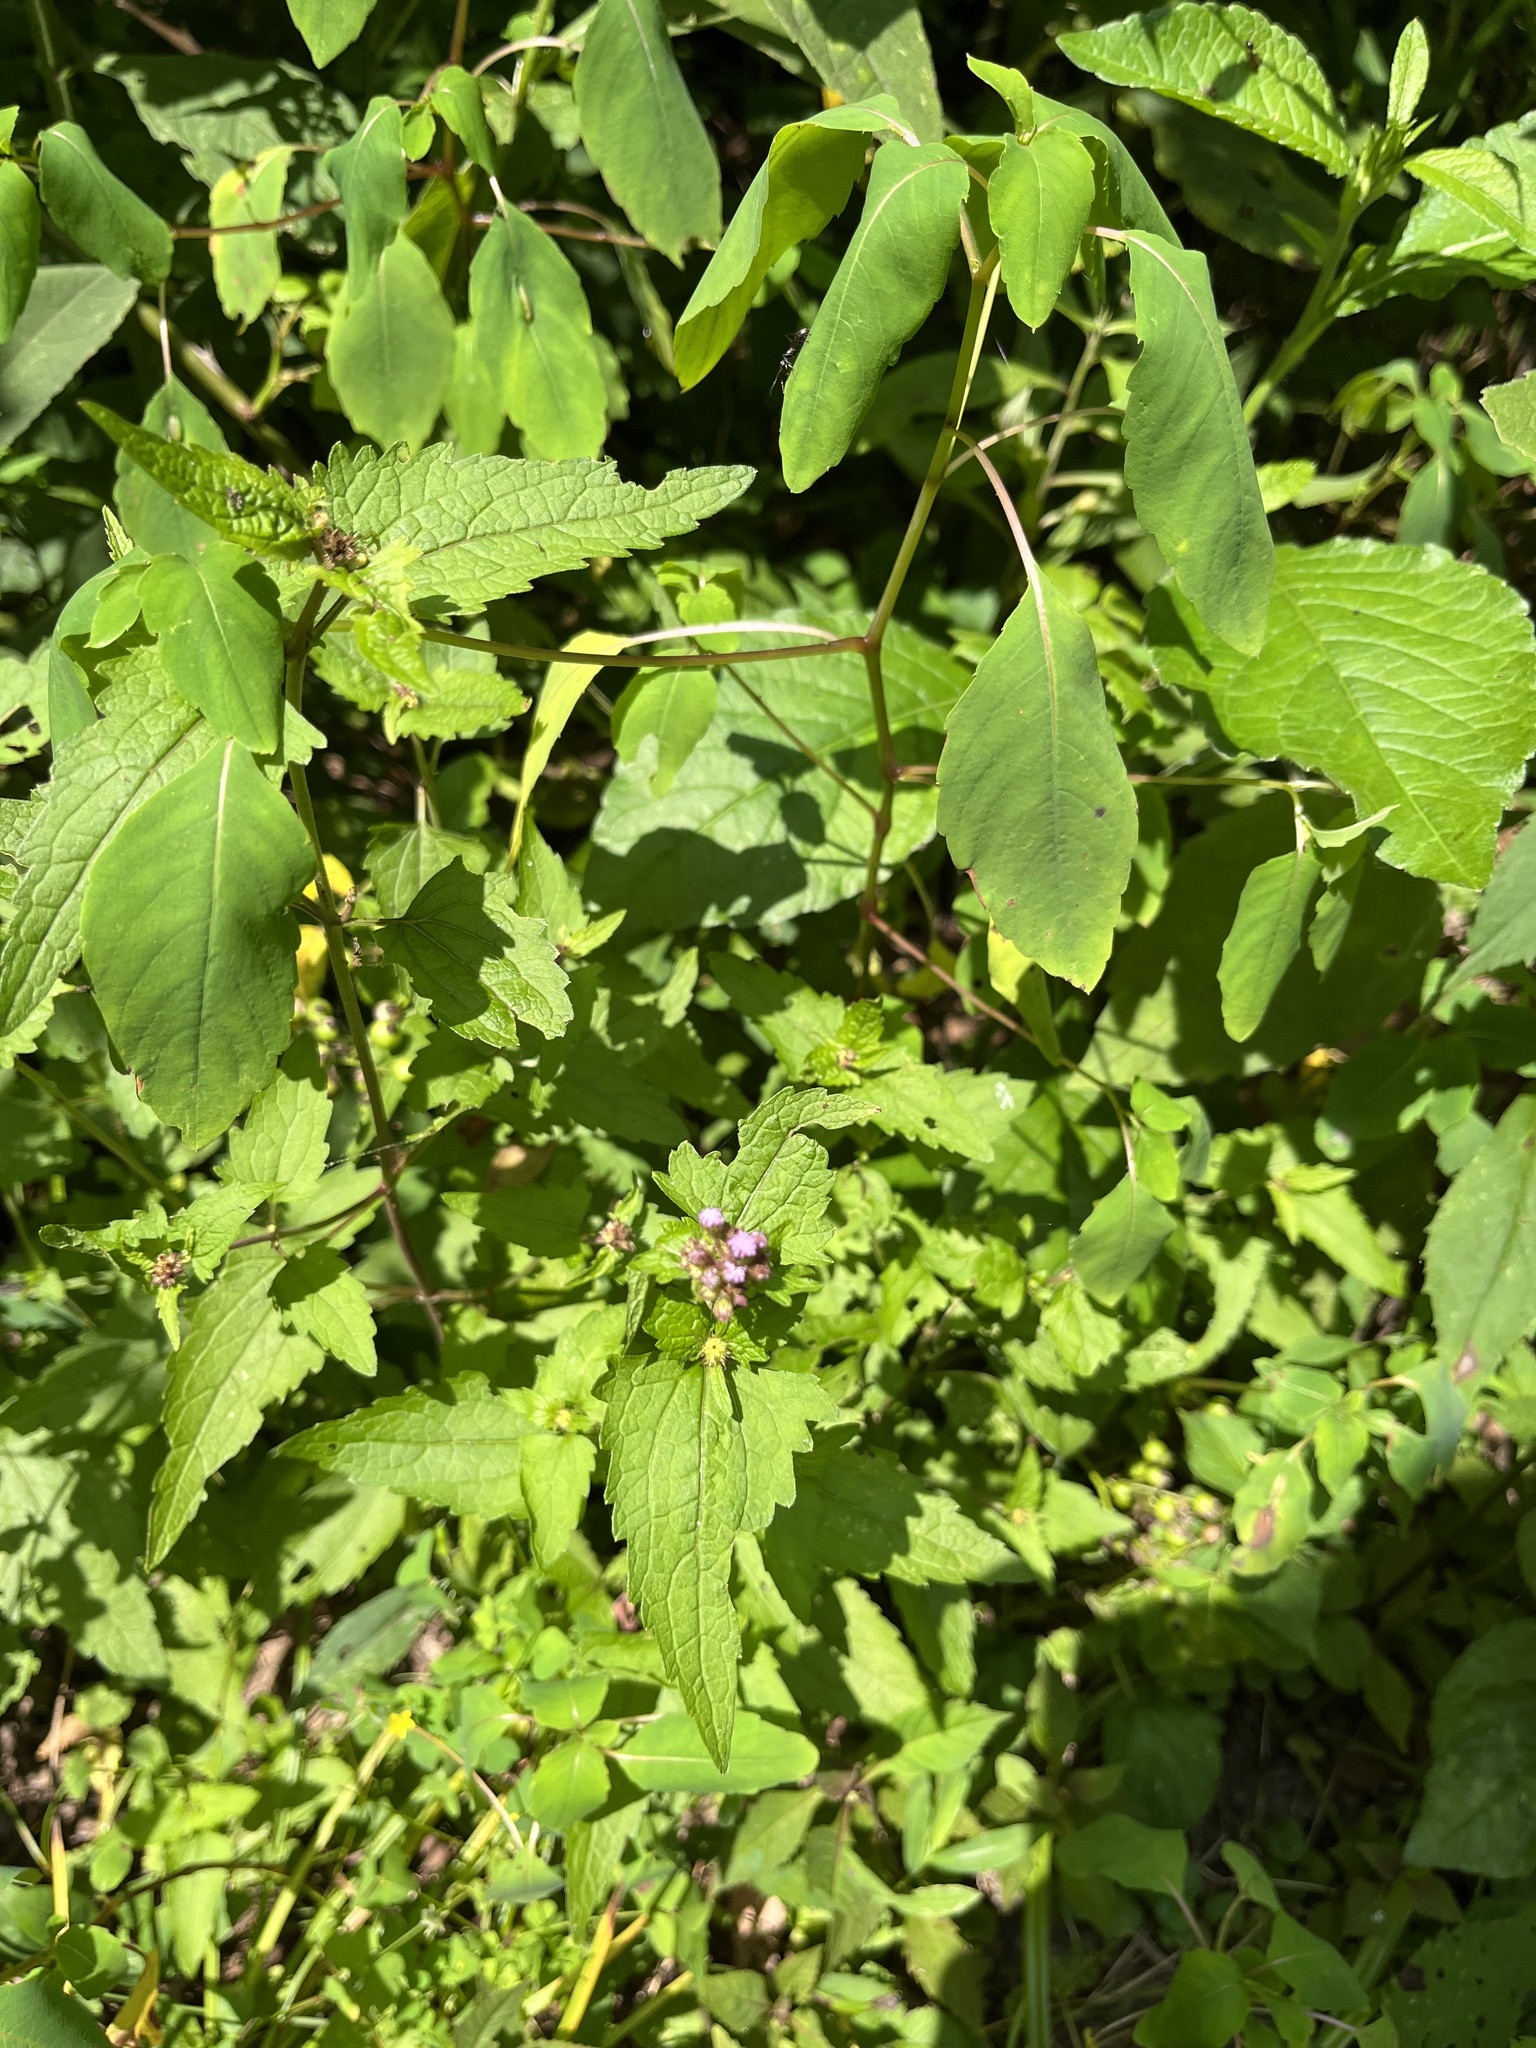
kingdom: Plantae
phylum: Tracheophyta
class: Magnoliopsida
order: Asterales
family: Asteraceae
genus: Conoclinium
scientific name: Conoclinium coelestinum
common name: Blue mistflower
